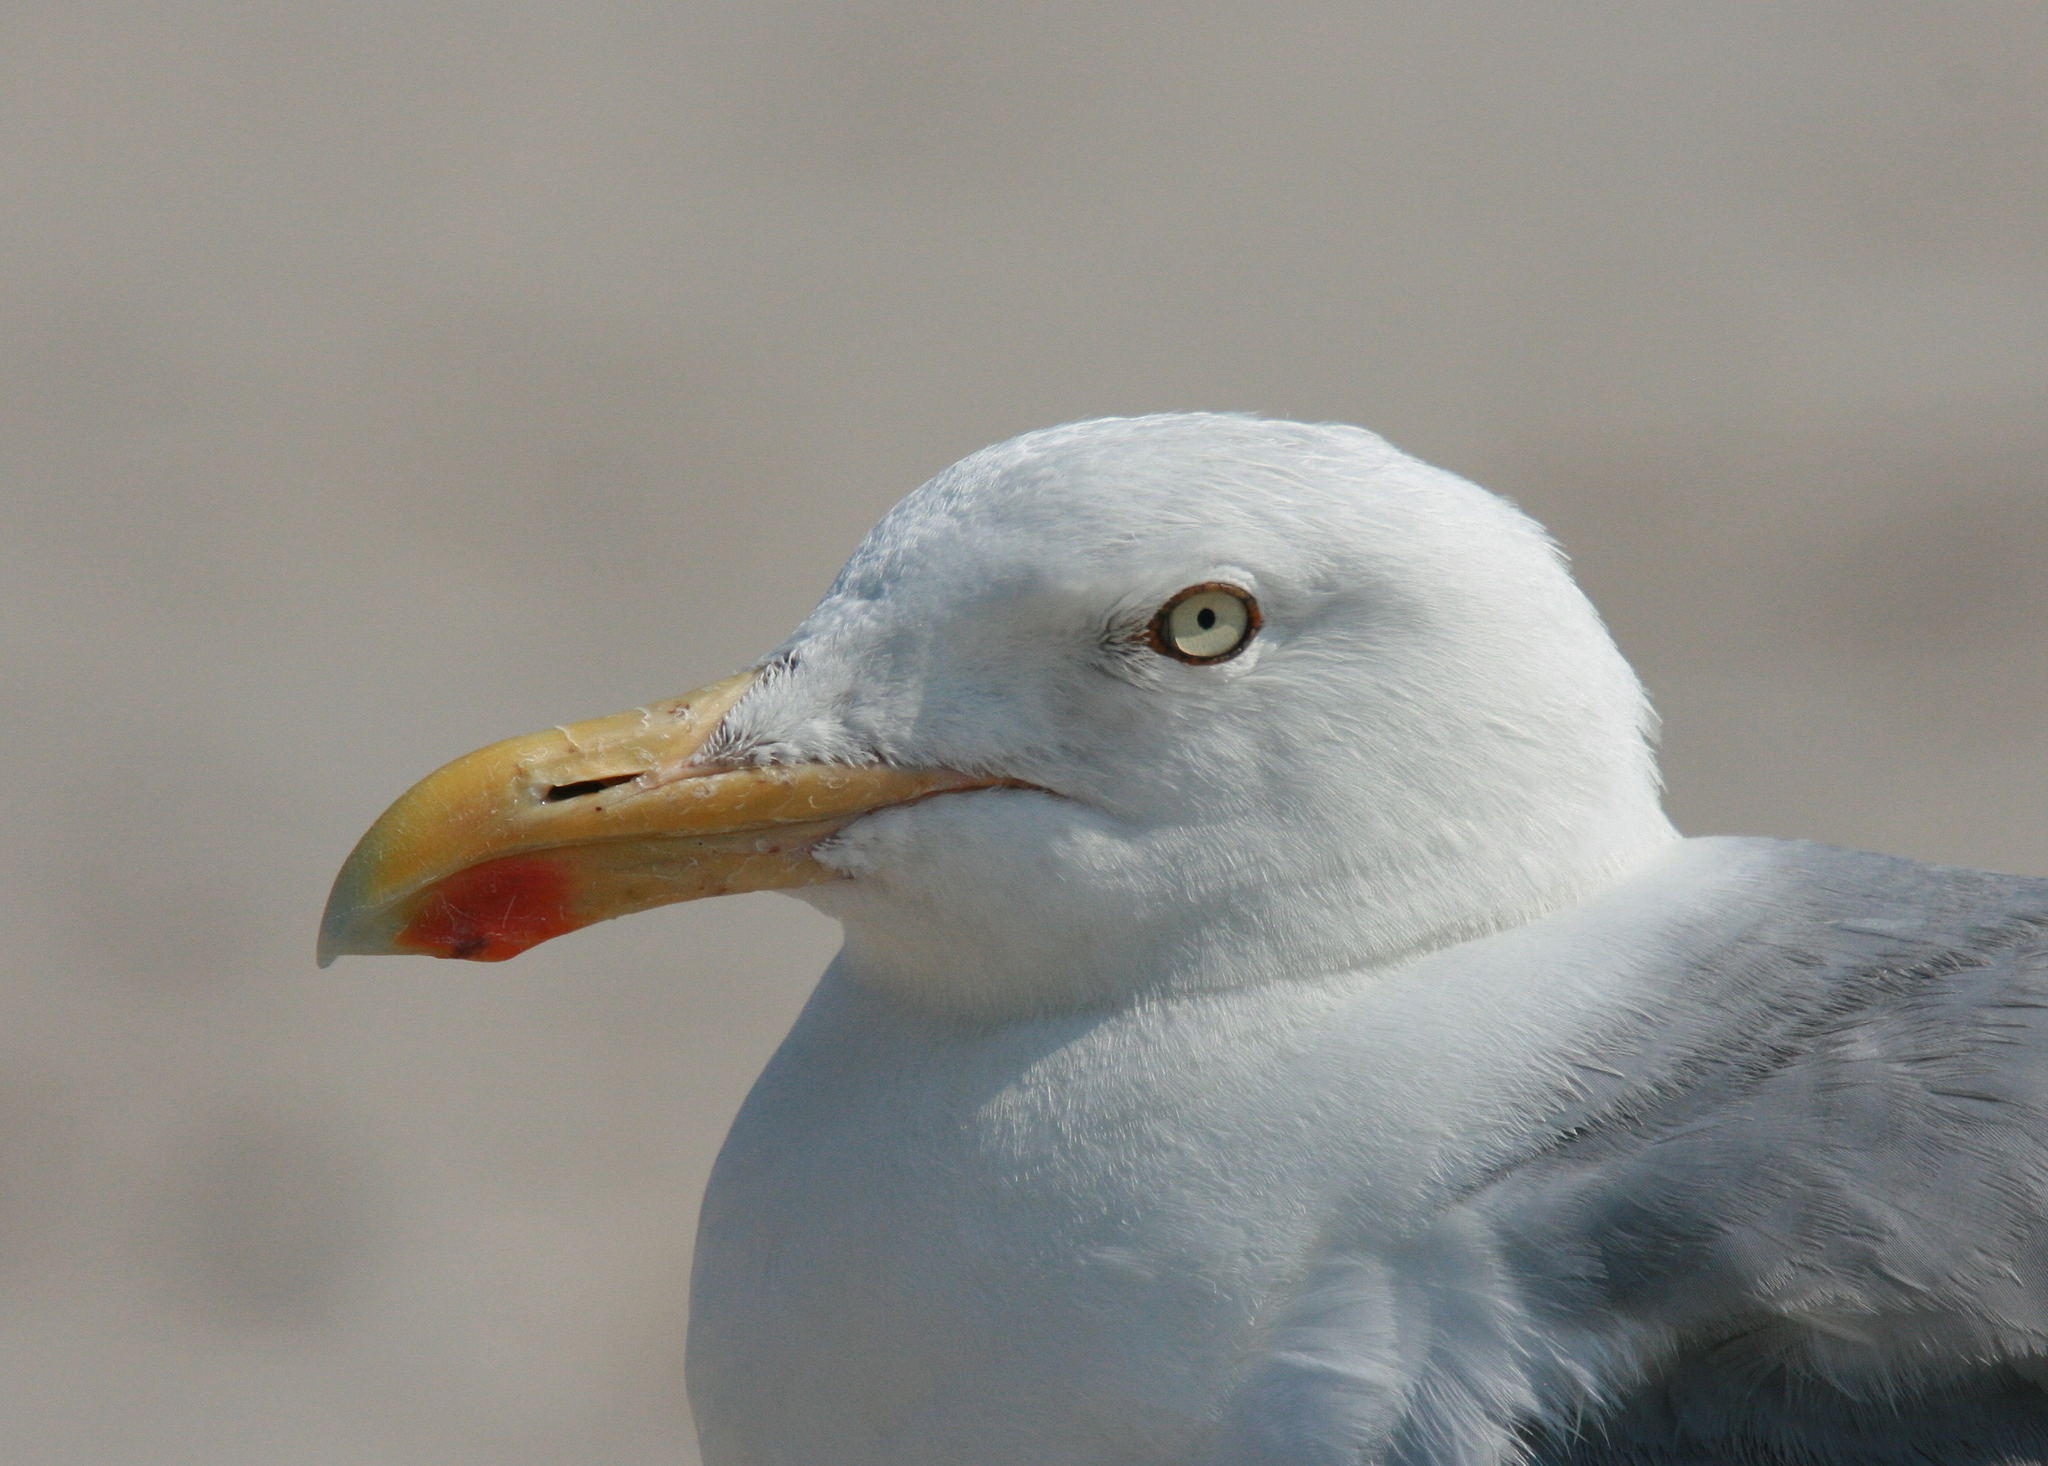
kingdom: Animalia
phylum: Chordata
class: Aves
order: Charadriiformes
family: Laridae
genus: Larus
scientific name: Larus argentatus
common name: Herring gull
